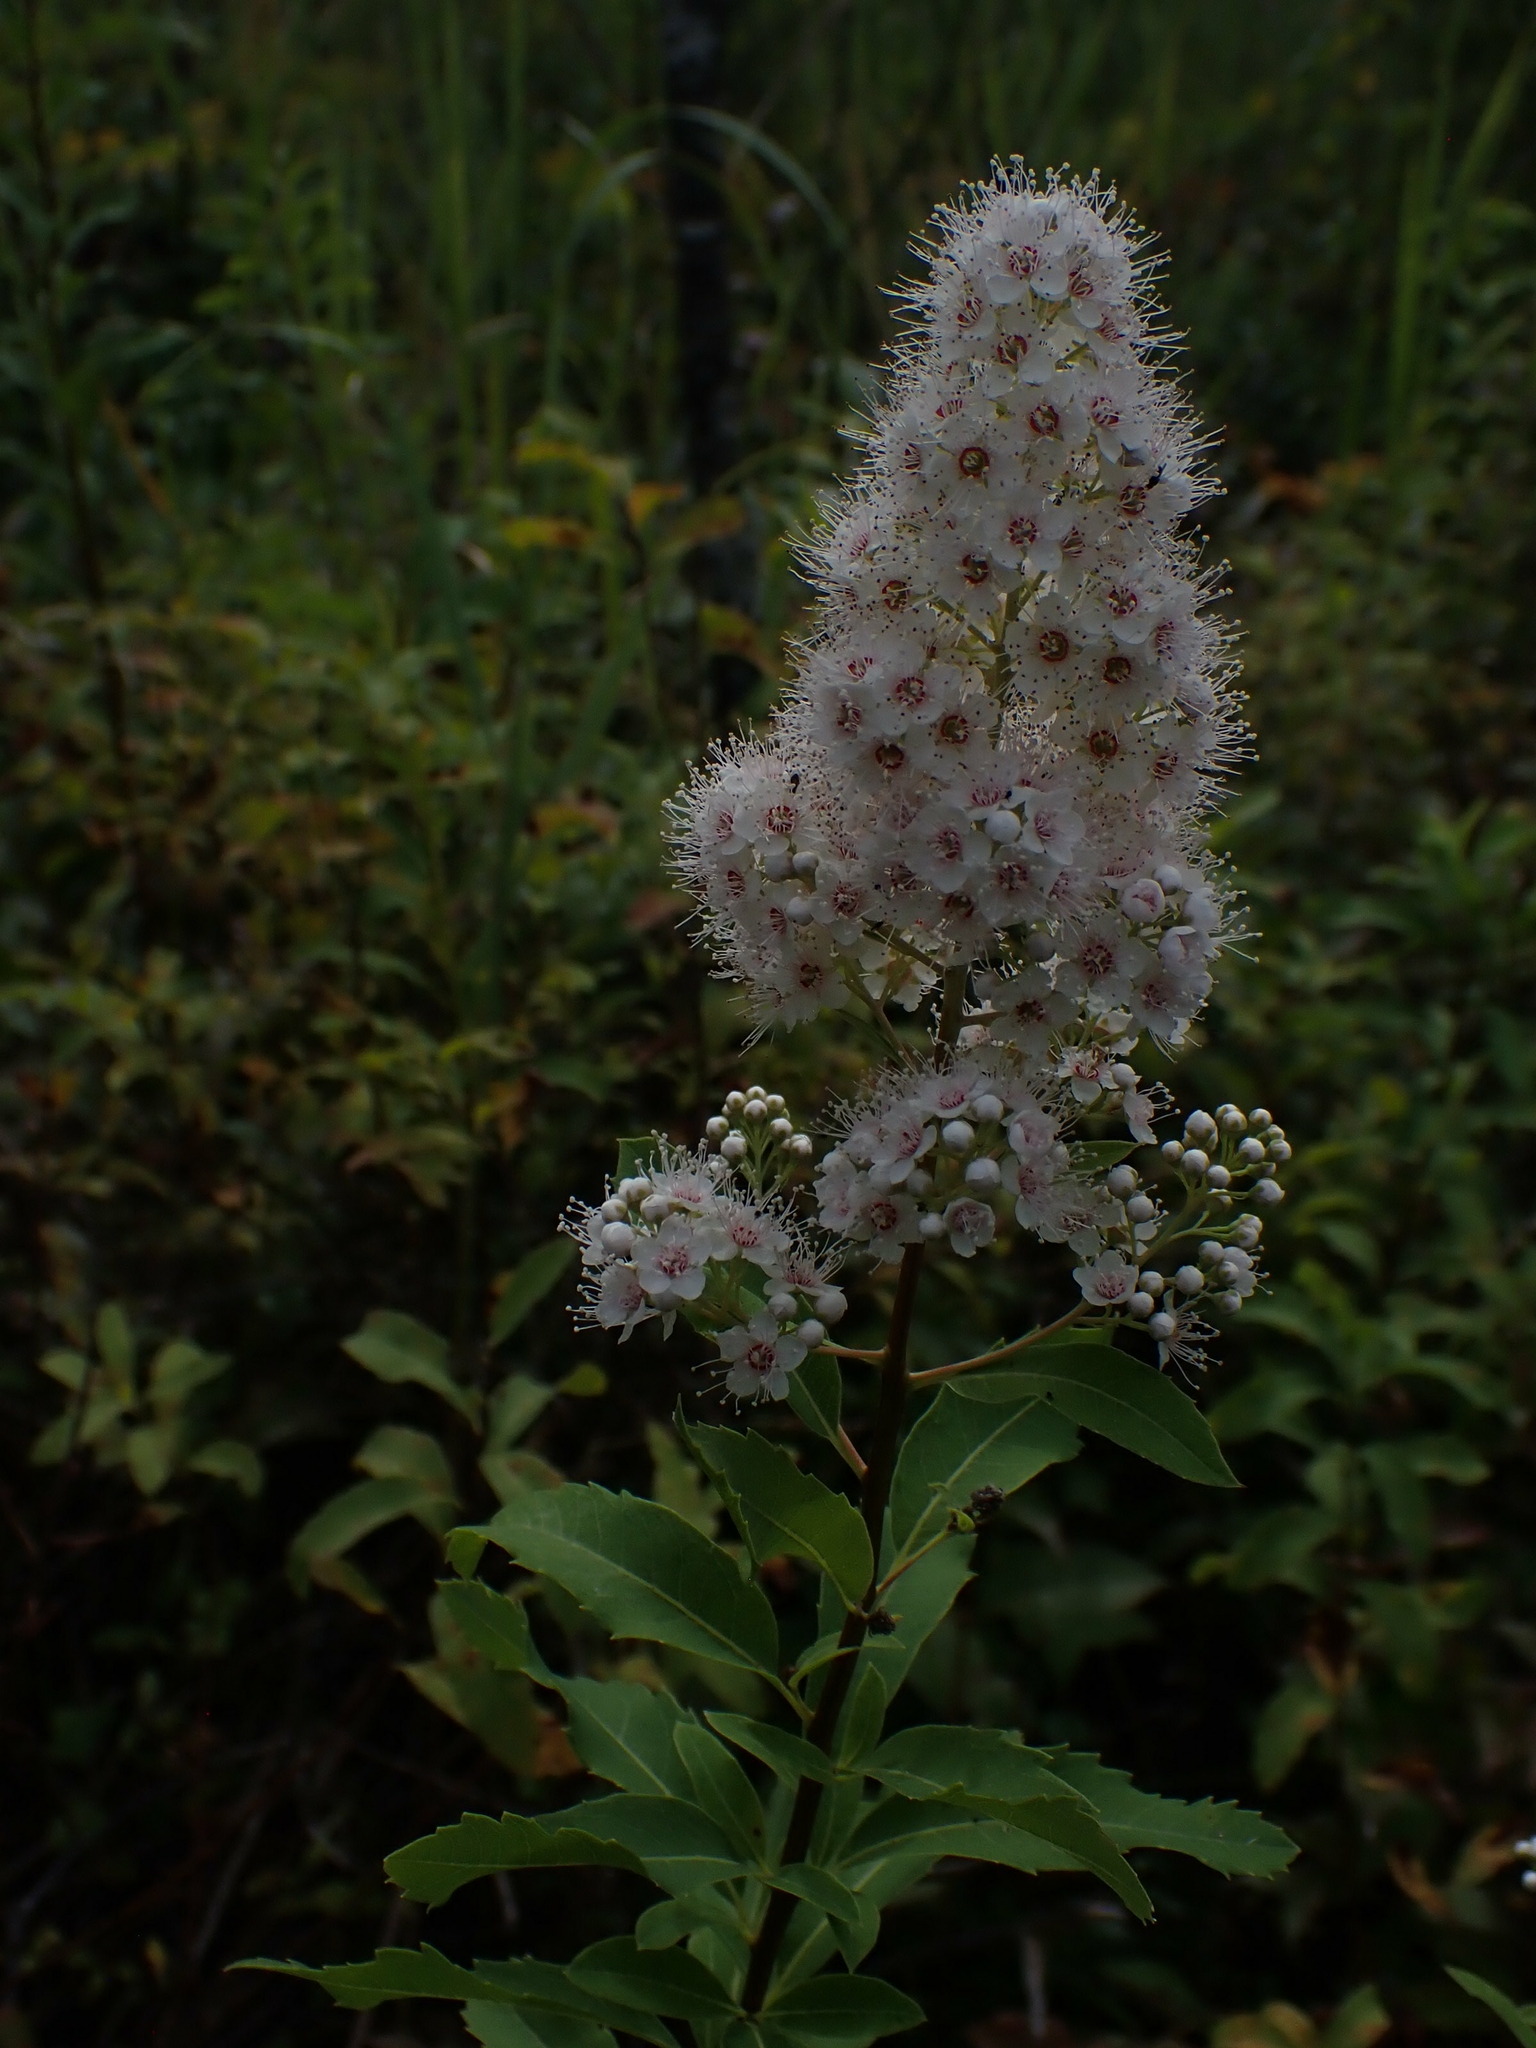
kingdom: Plantae
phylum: Tracheophyta
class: Magnoliopsida
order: Rosales
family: Rosaceae
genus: Spiraea
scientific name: Spiraea alba
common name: Pale bridewort
